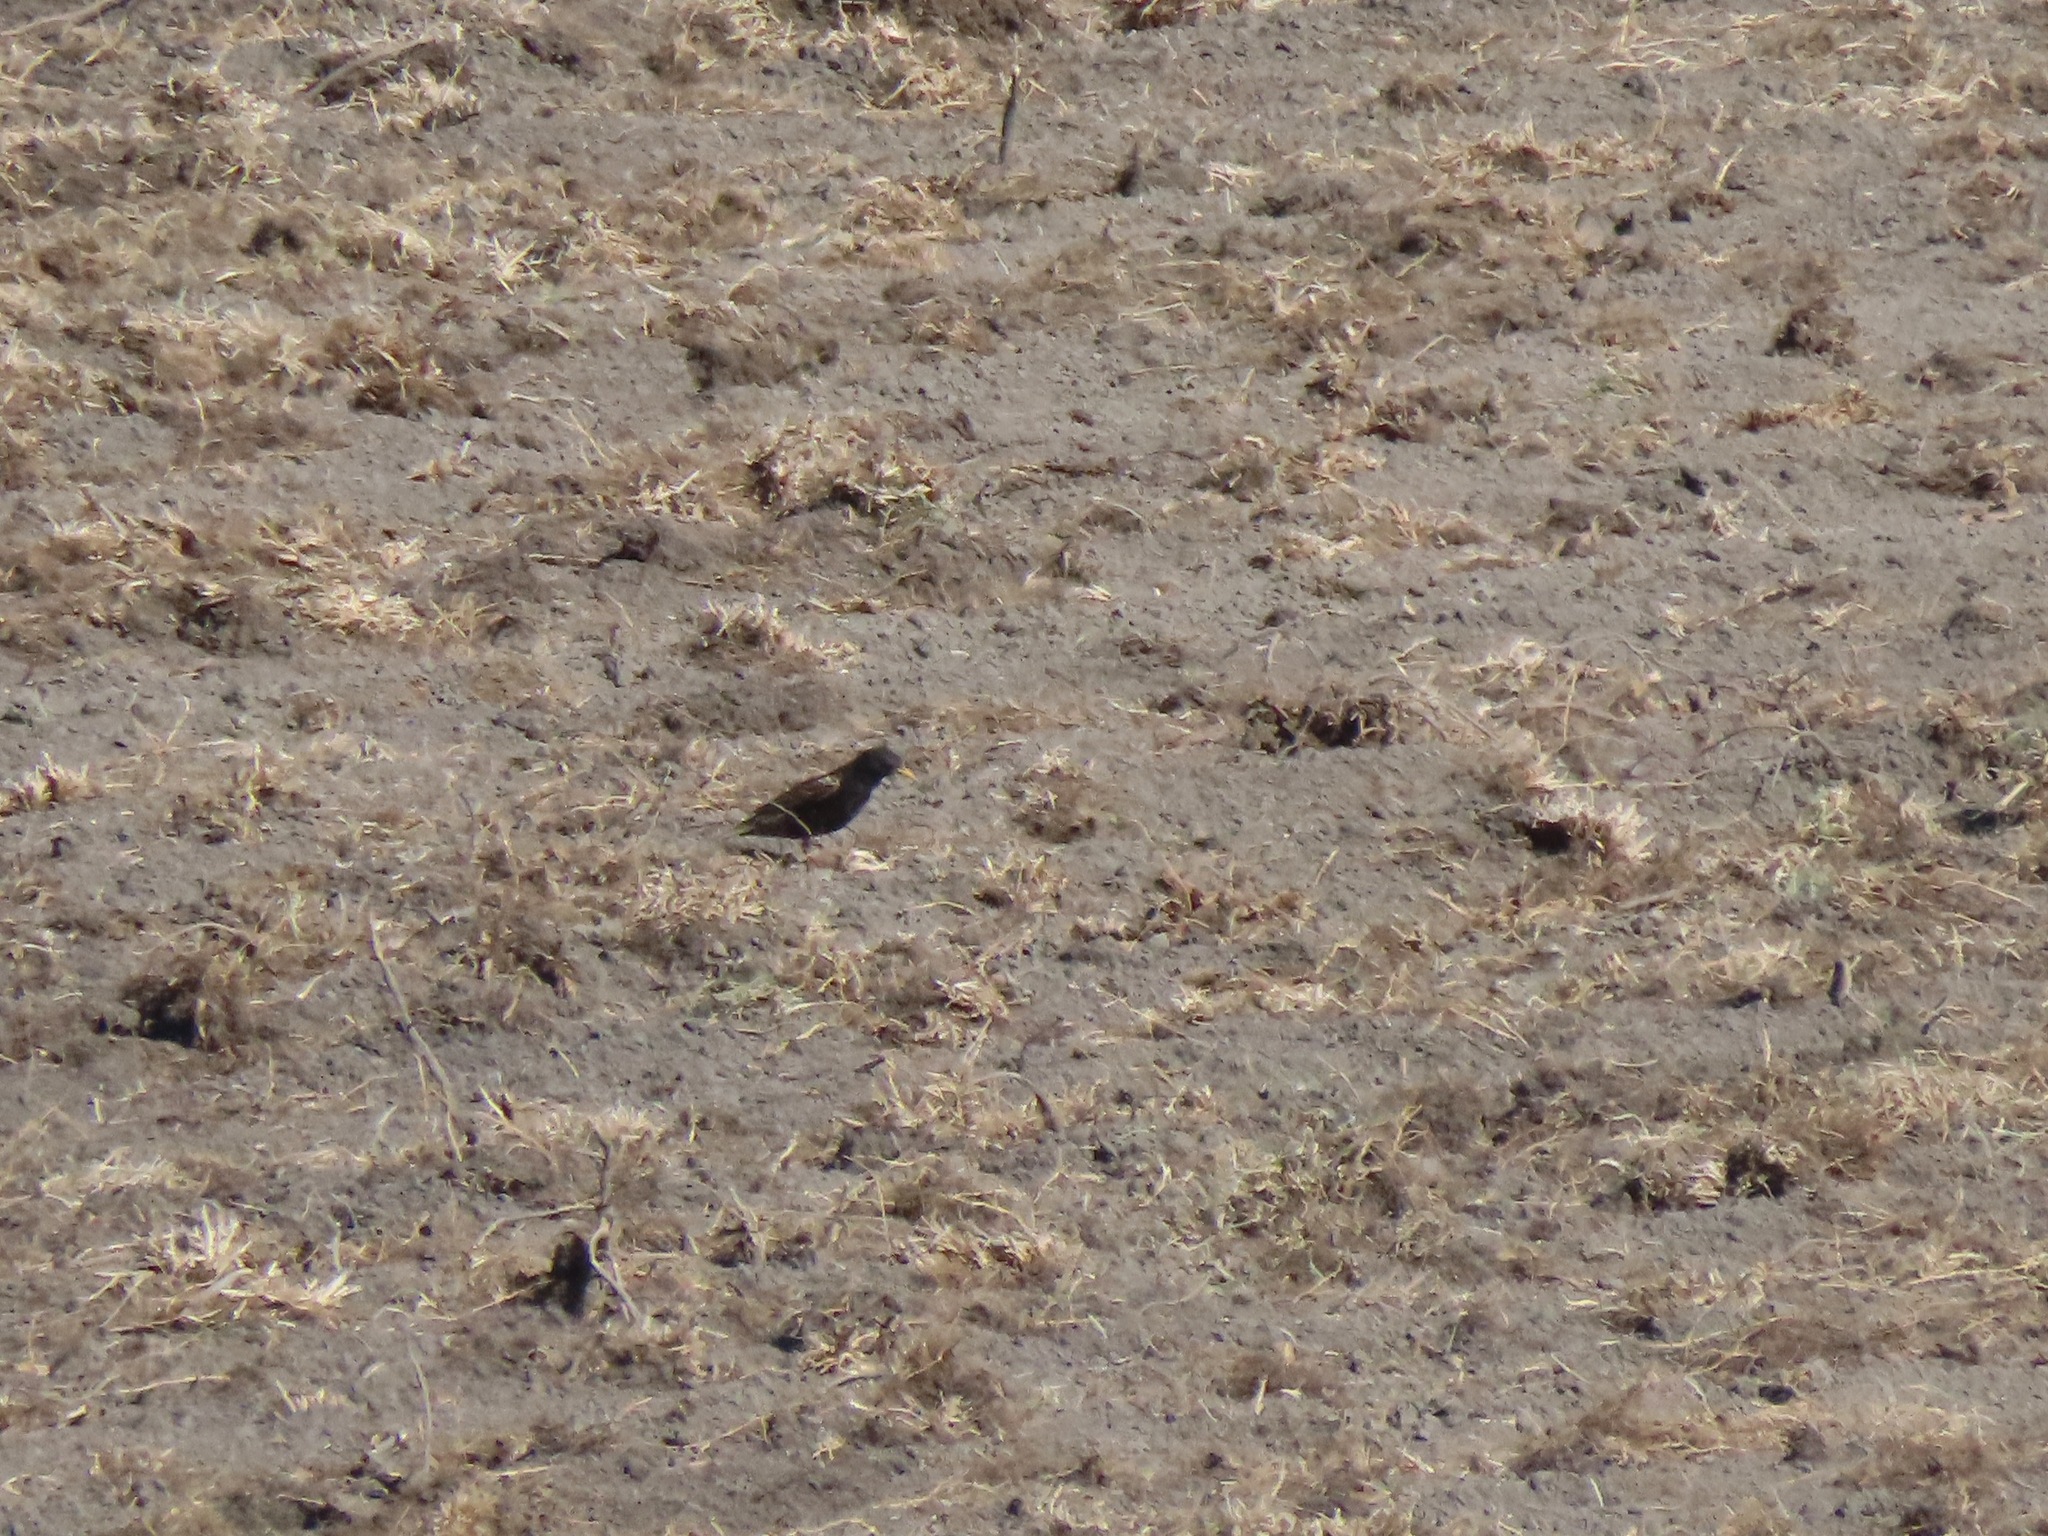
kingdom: Animalia
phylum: Chordata
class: Aves
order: Passeriformes
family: Sturnidae
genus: Sturnus
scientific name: Sturnus vulgaris
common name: Common starling
